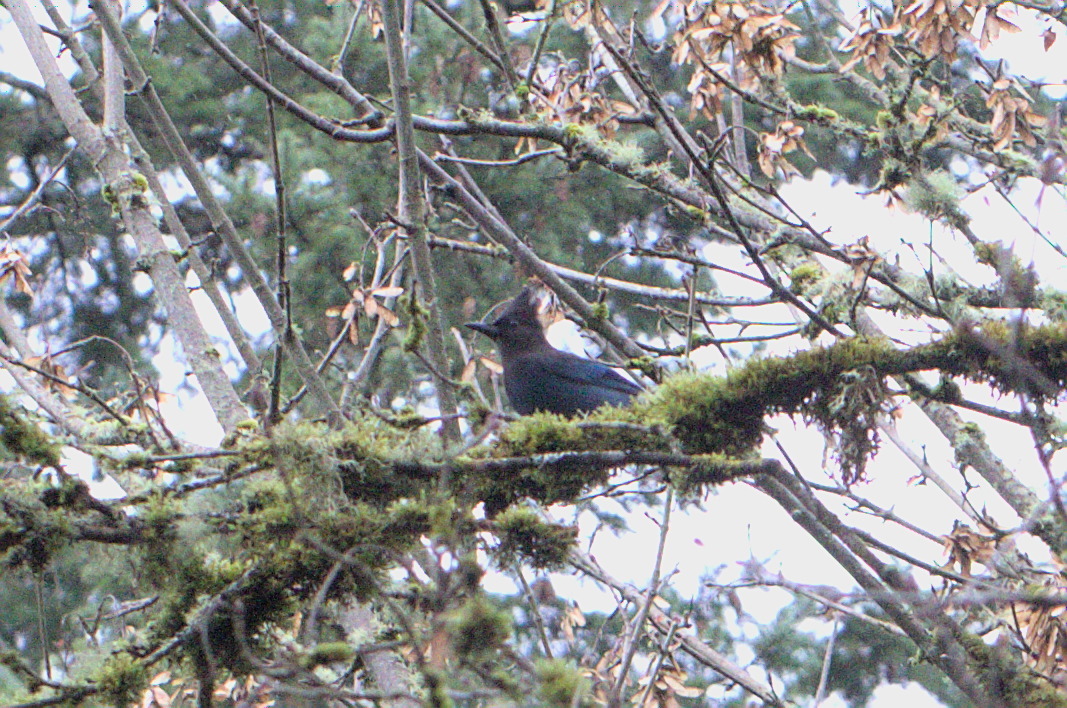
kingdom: Animalia
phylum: Chordata
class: Aves
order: Passeriformes
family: Corvidae
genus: Cyanocitta
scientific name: Cyanocitta stelleri
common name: Steller's jay
